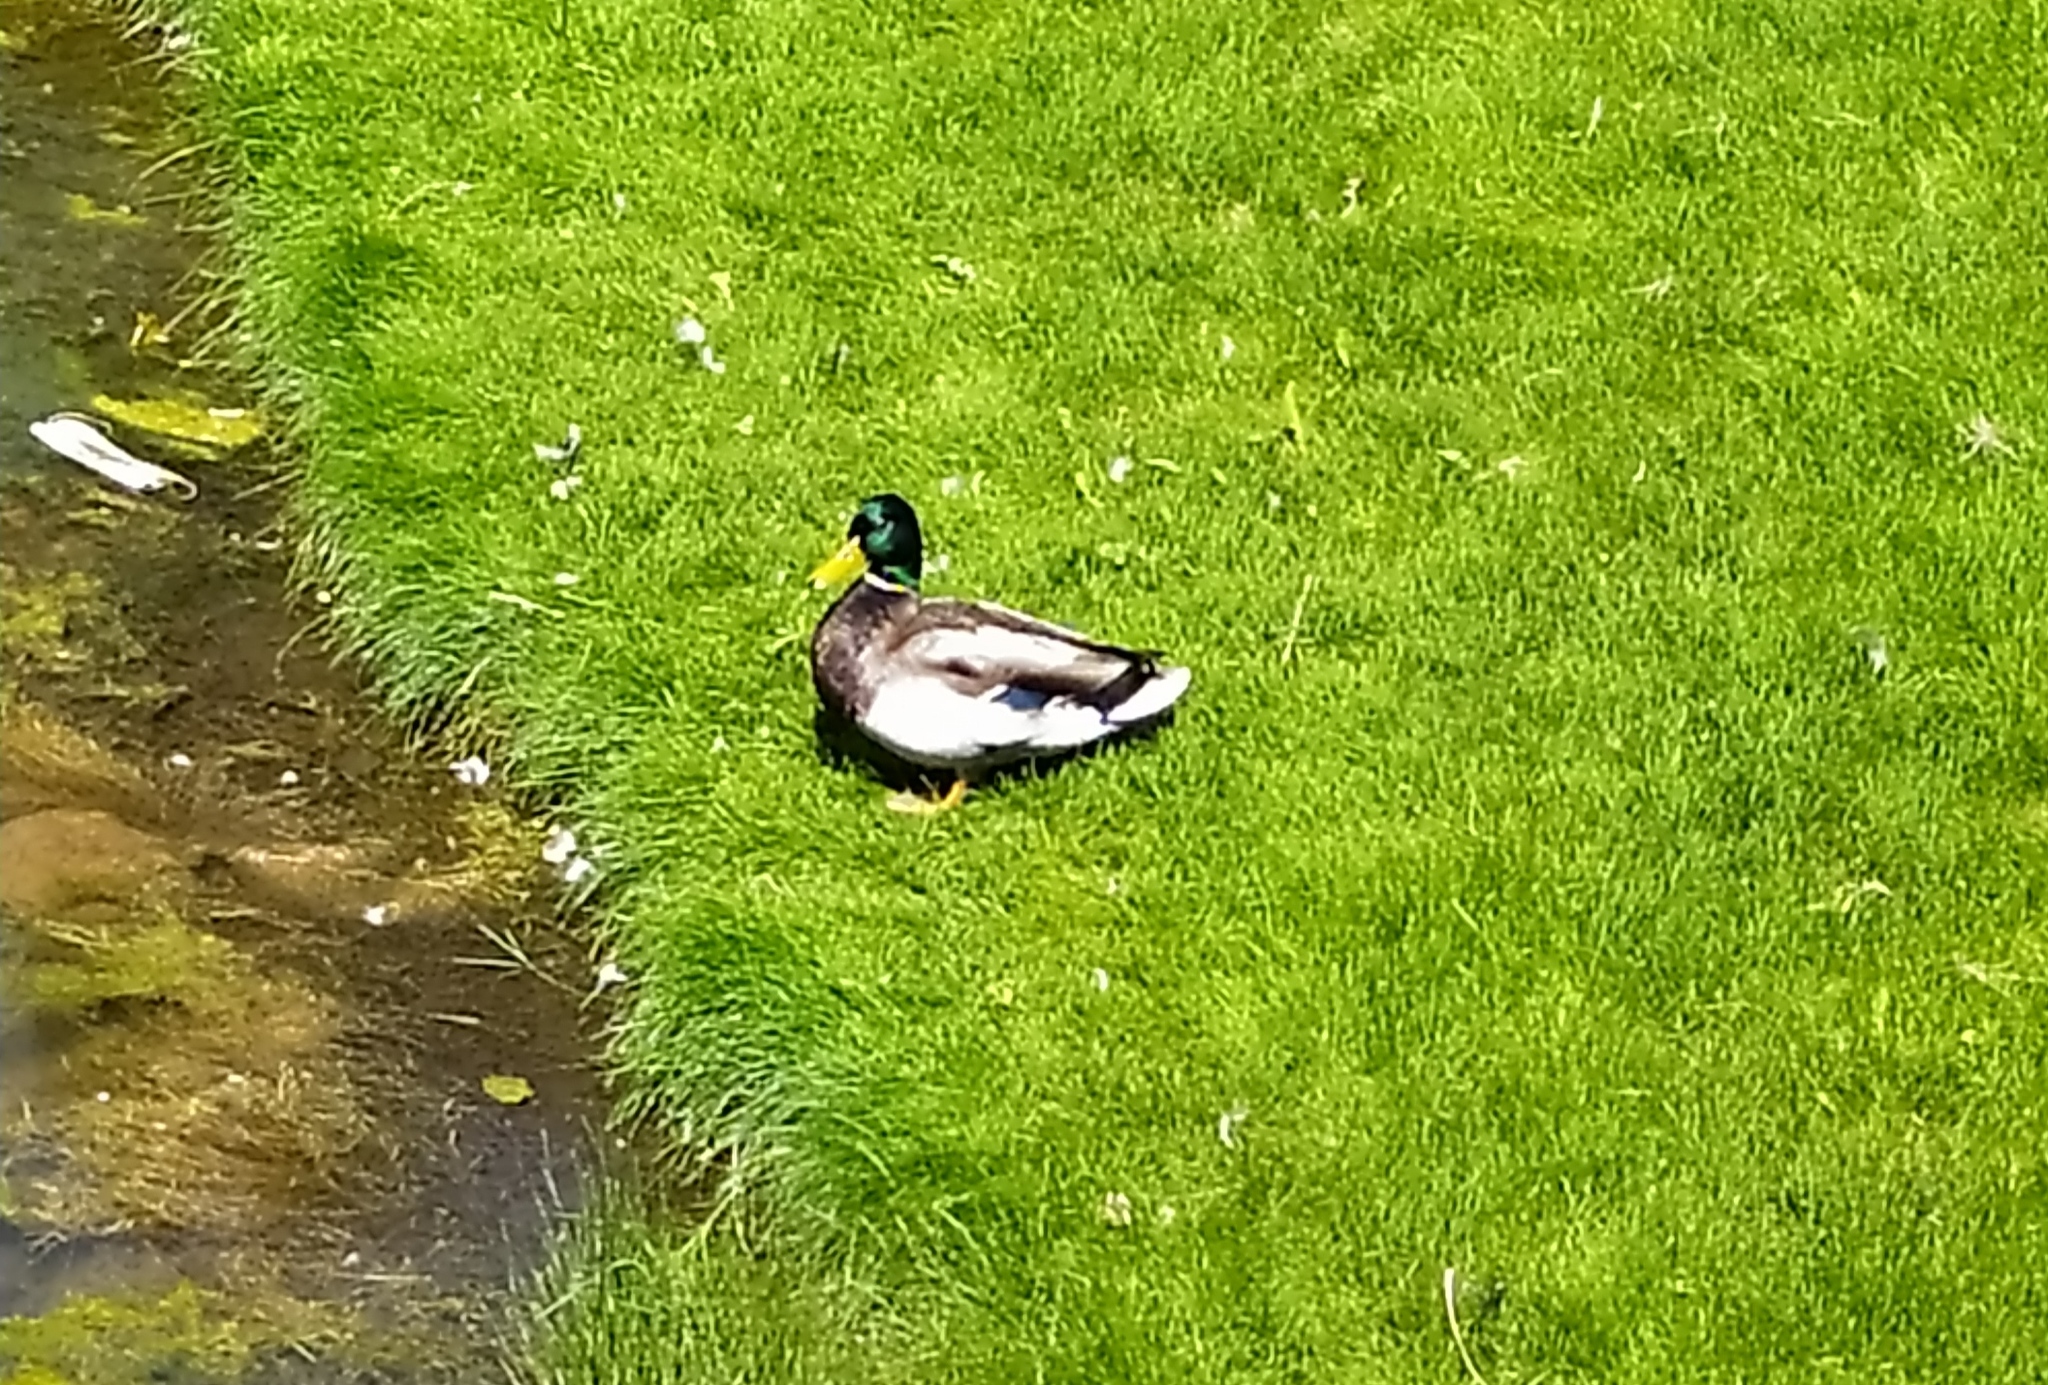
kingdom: Animalia
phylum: Chordata
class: Aves
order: Anseriformes
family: Anatidae
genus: Anas
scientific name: Anas platyrhynchos
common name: Mallard
